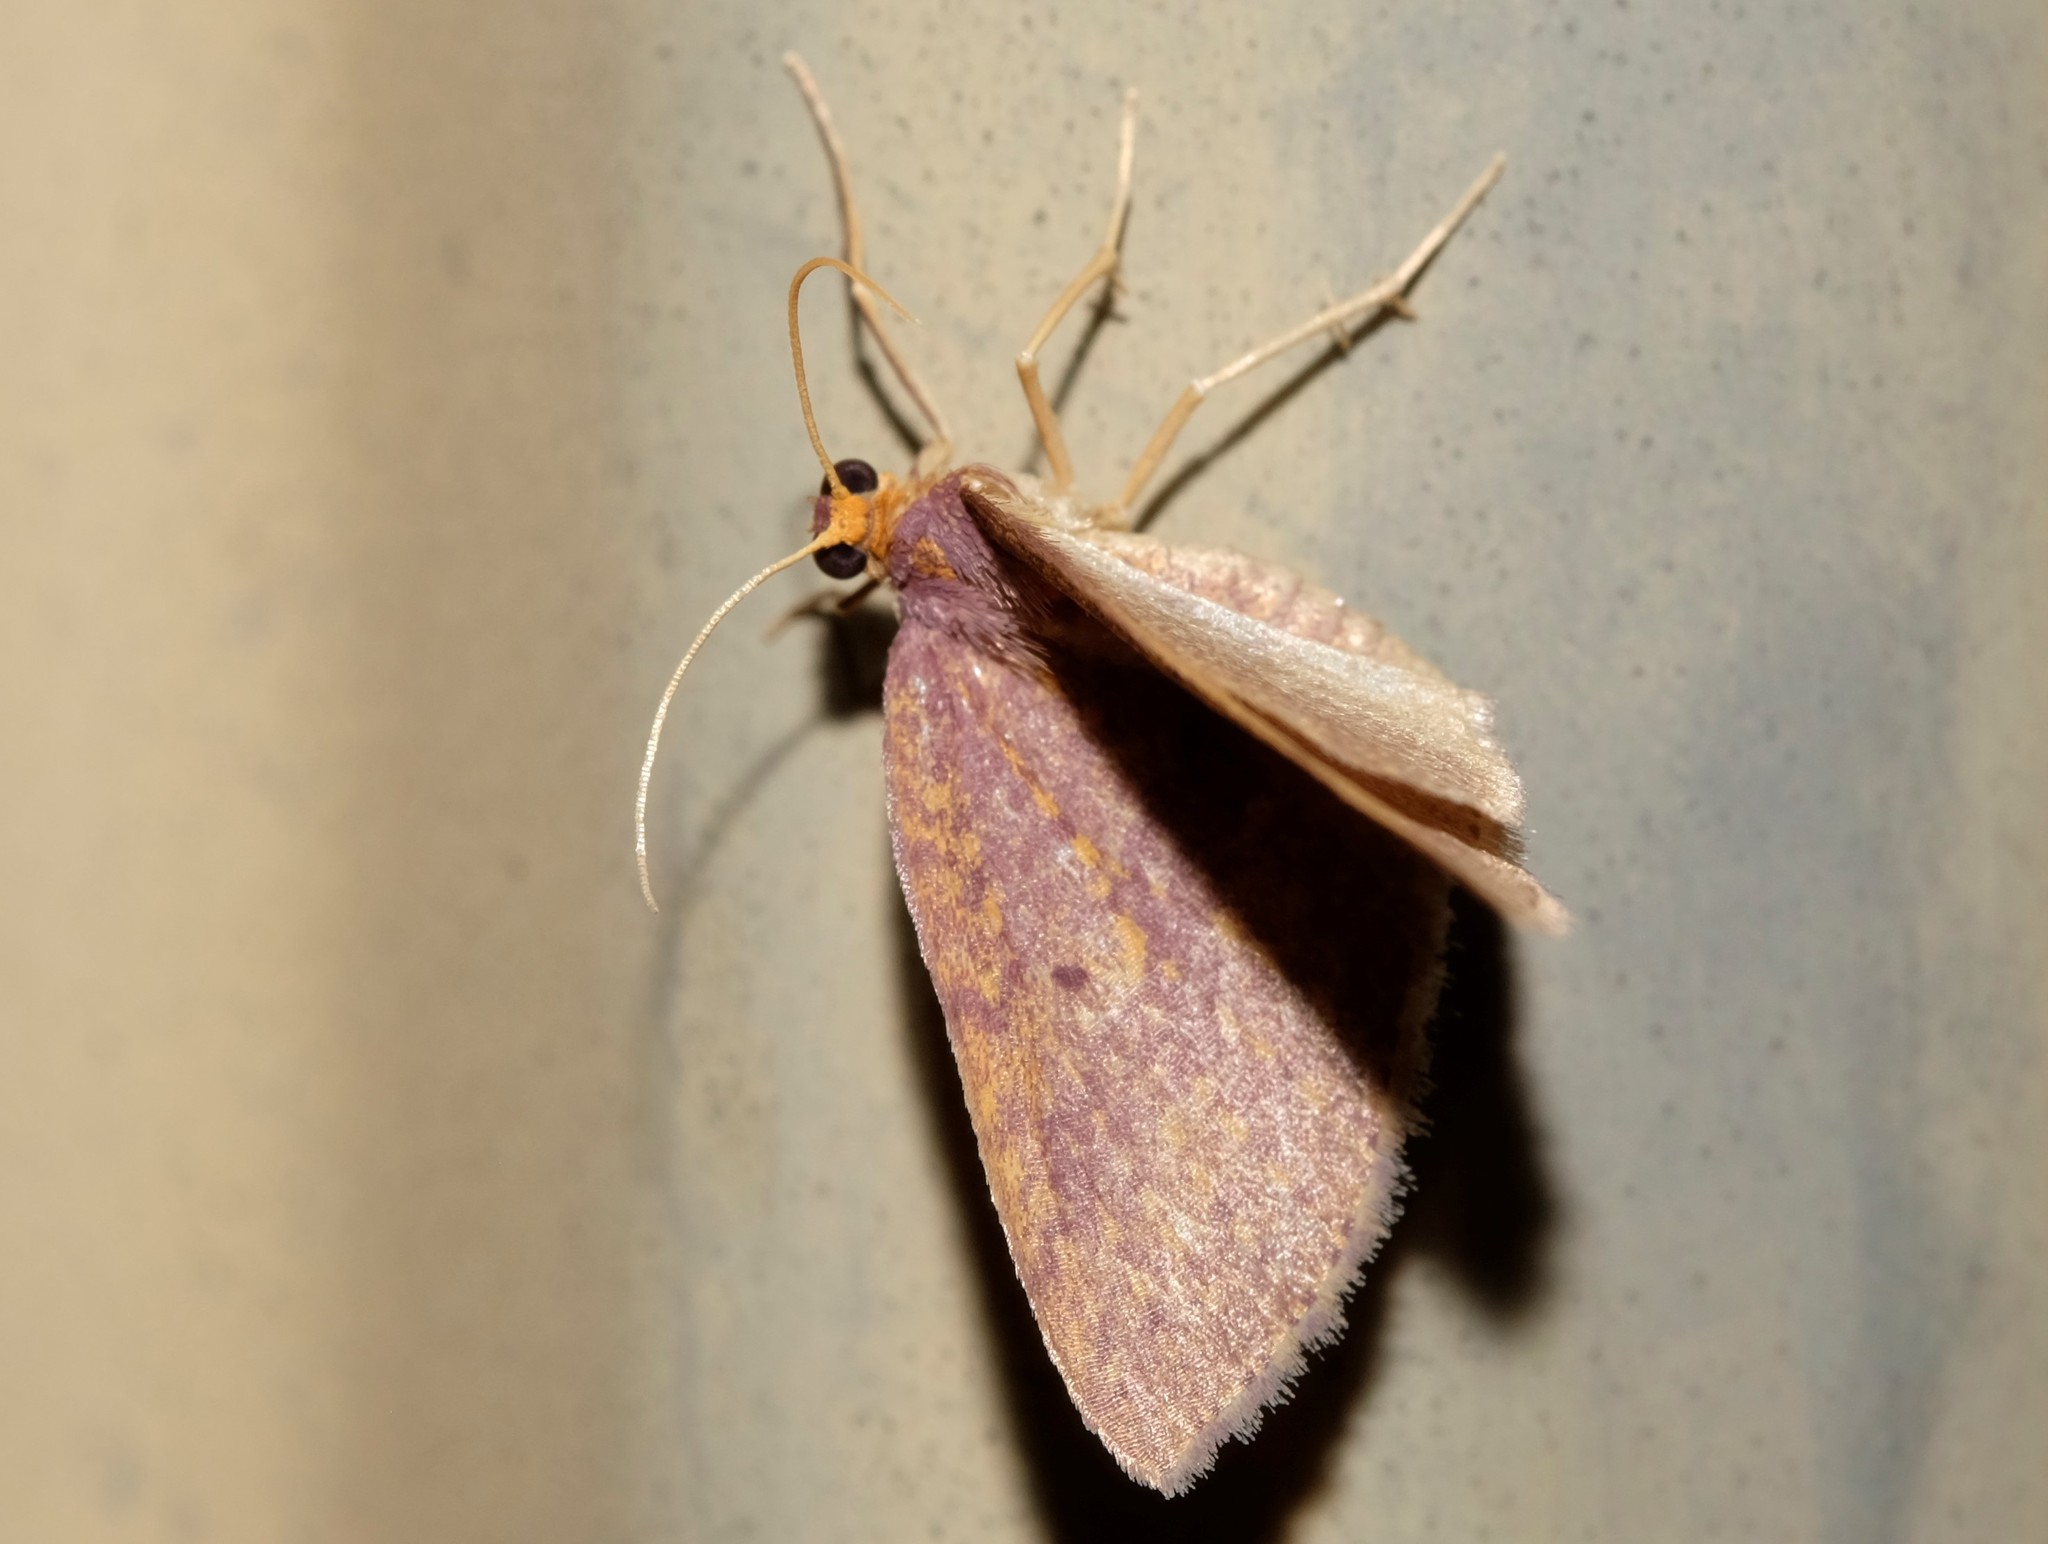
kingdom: Animalia
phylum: Arthropoda
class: Insecta
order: Lepidoptera
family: Geometridae
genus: Poecilasthena
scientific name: Poecilasthena anthodes
